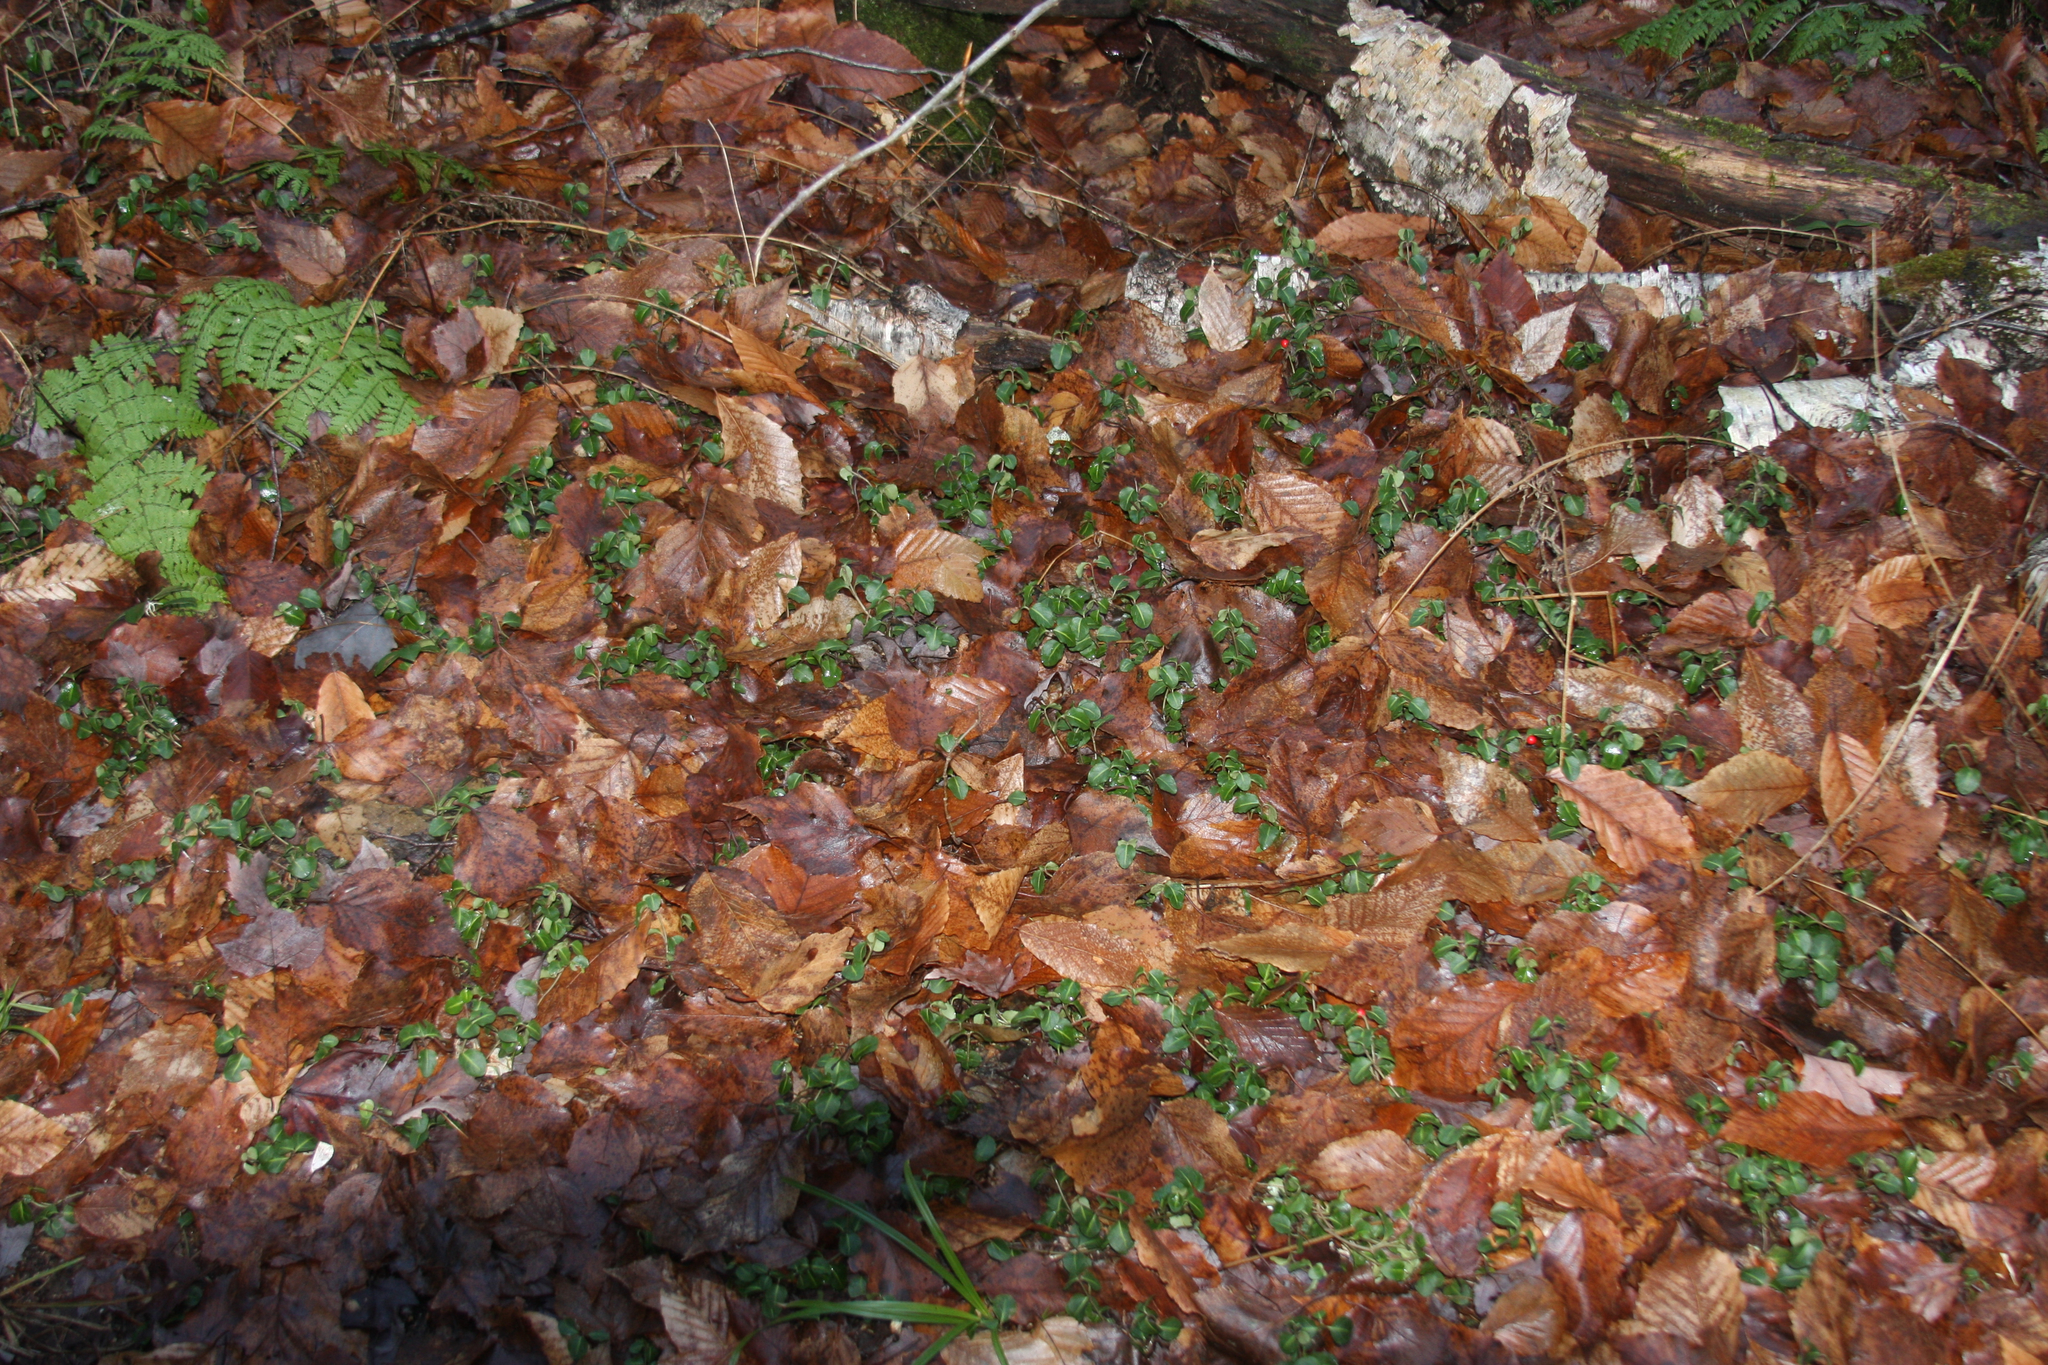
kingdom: Plantae
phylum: Tracheophyta
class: Magnoliopsida
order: Gentianales
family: Rubiaceae
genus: Mitchella
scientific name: Mitchella repens
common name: Partridge-berry
